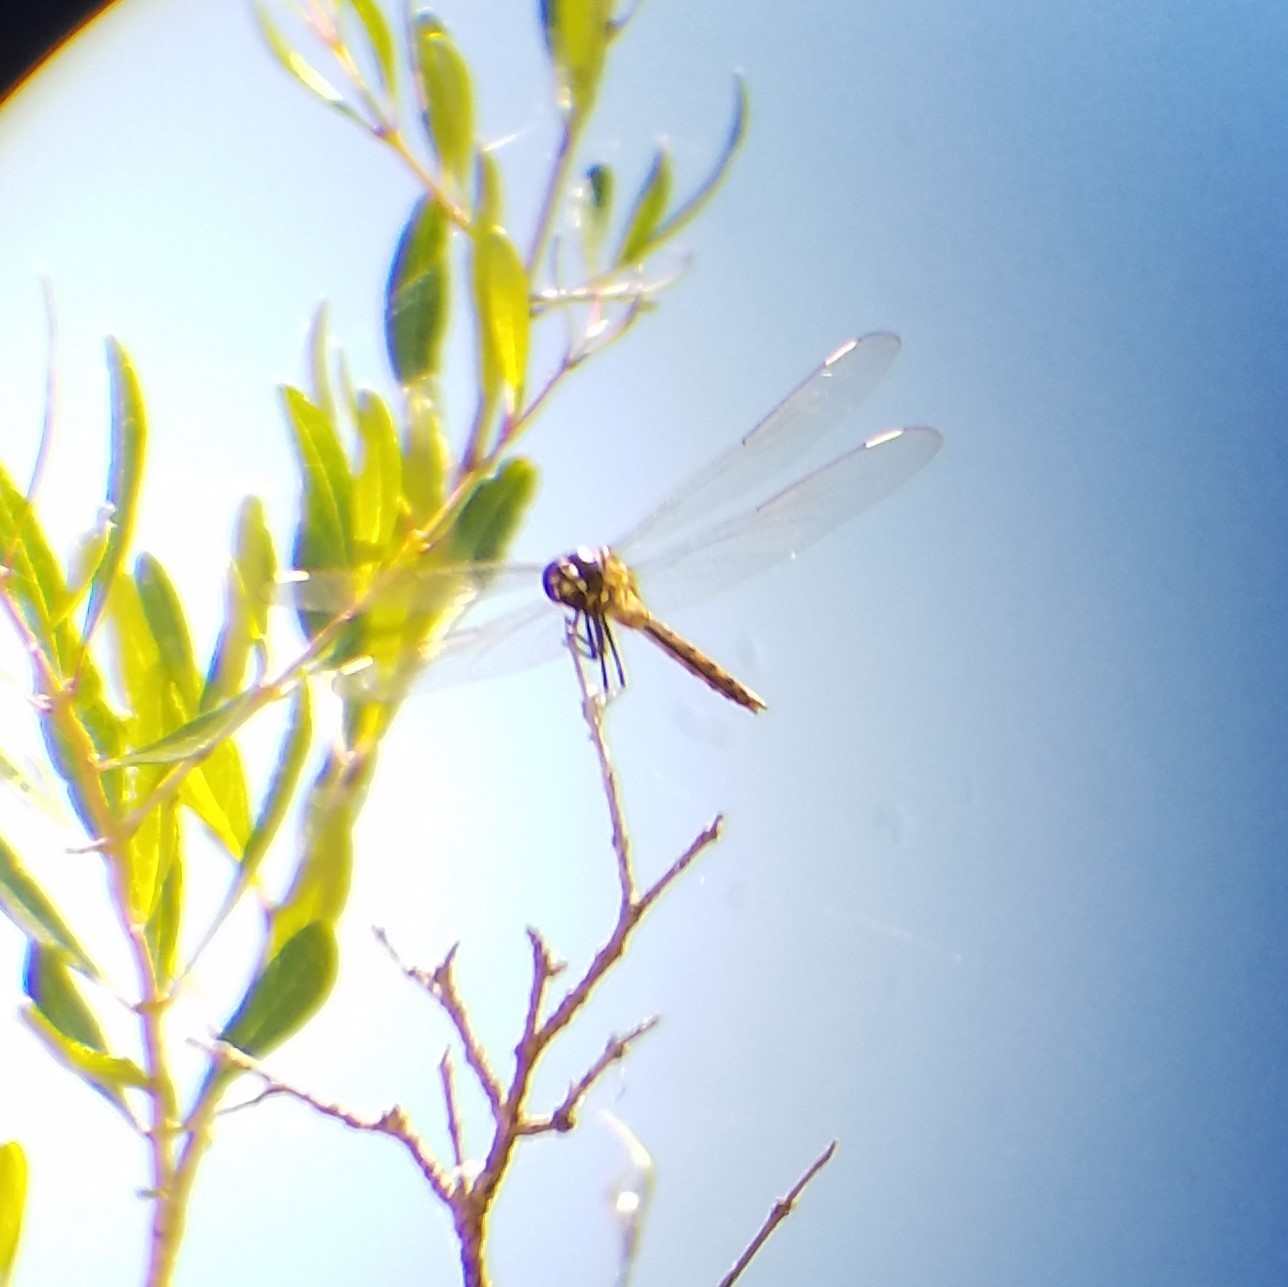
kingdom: Animalia
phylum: Arthropoda
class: Insecta
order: Odonata
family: Libellulidae
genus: Brachymesia
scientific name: Brachymesia gravida
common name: Four-spotted pennant
